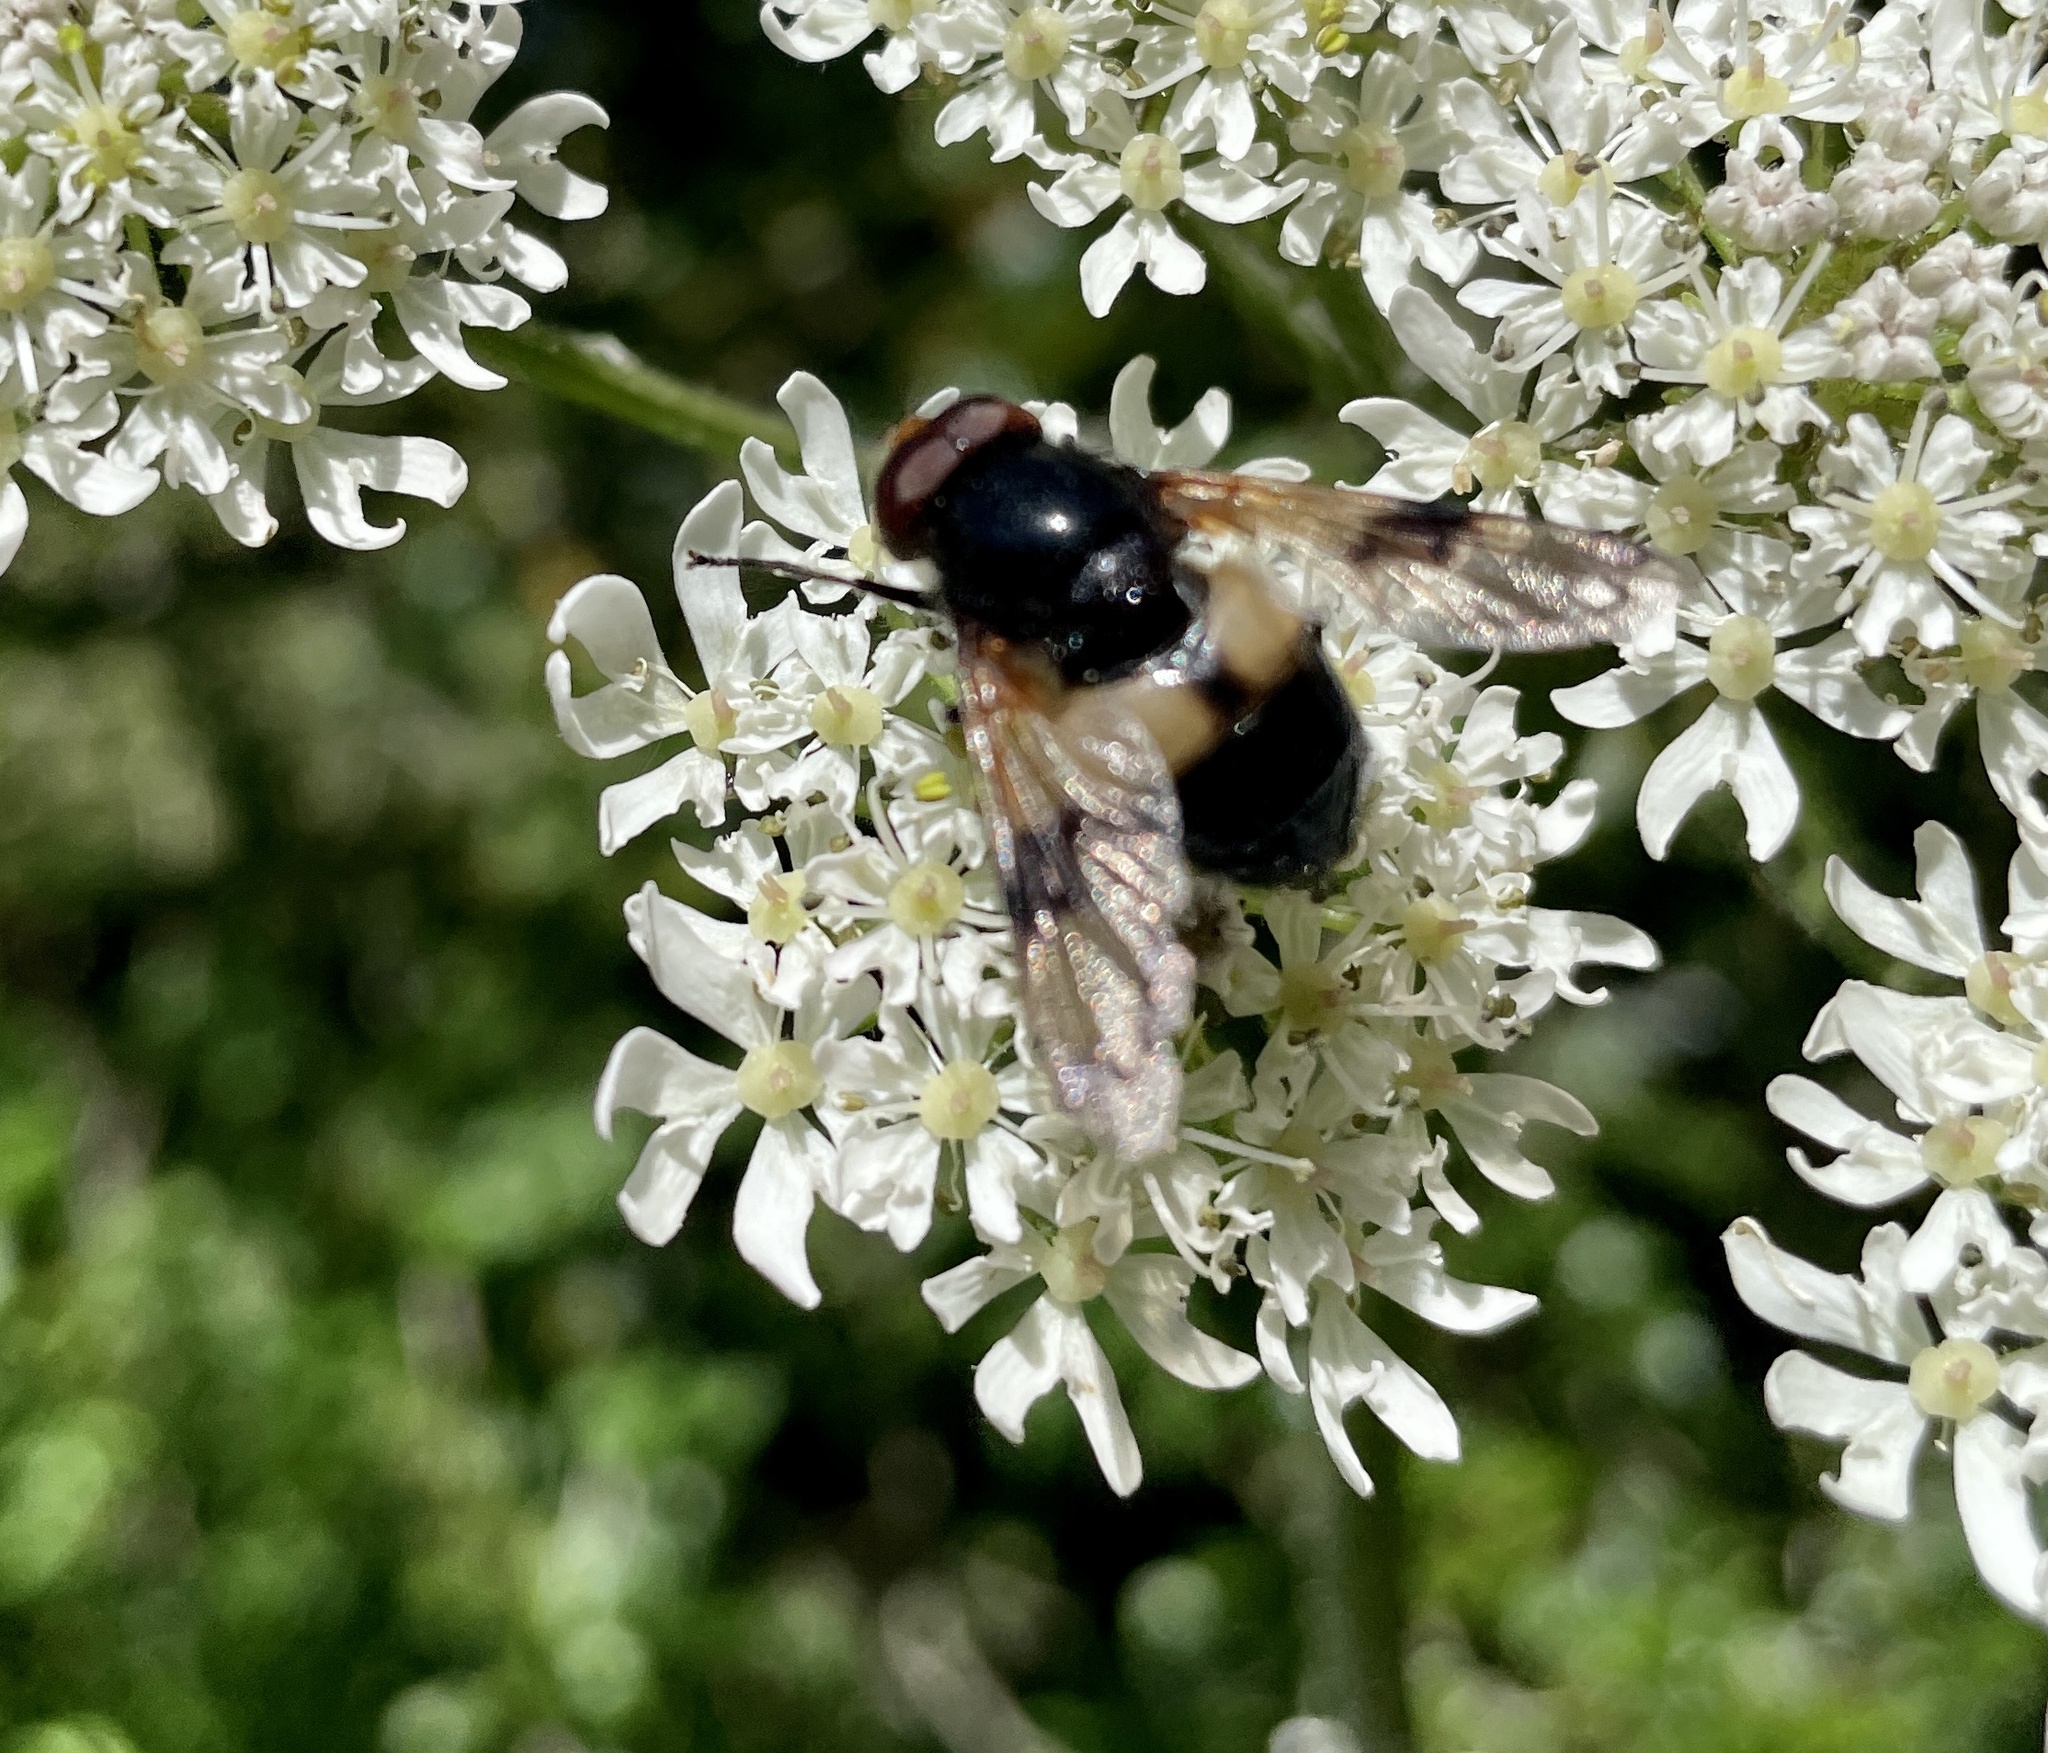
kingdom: Animalia
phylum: Arthropoda
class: Insecta
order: Diptera
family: Syrphidae
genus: Volucella
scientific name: Volucella pellucens
